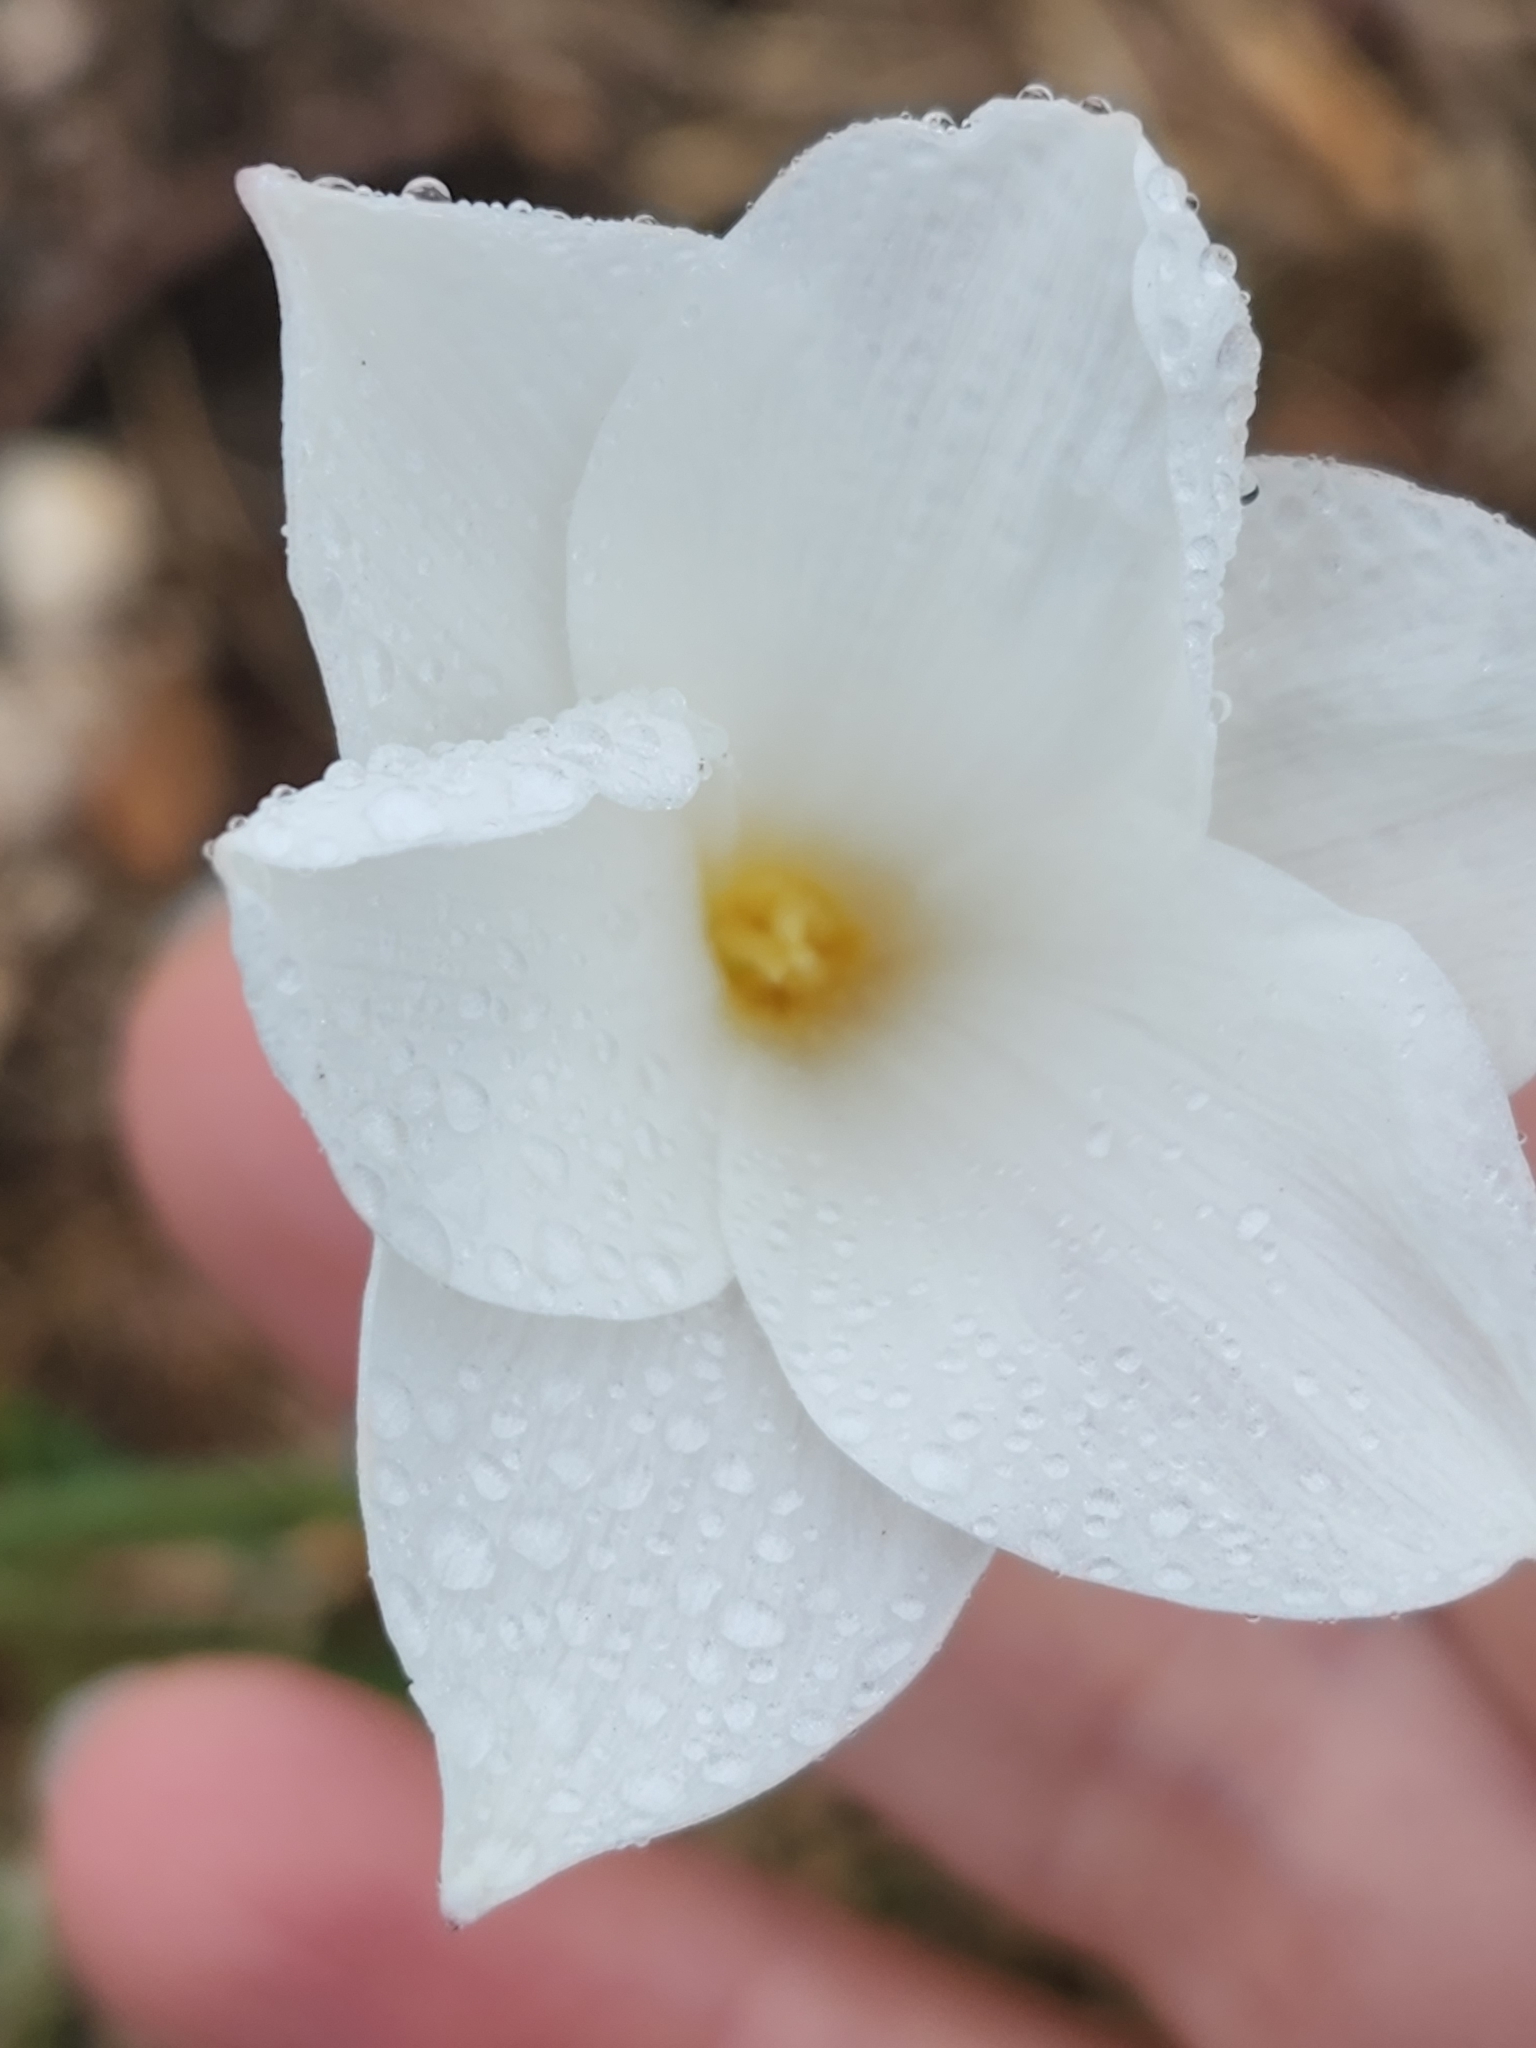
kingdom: Plantae
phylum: Tracheophyta
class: Liliopsida
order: Asparagales
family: Amaryllidaceae
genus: Zephyranthes
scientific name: Zephyranthes drummondii
